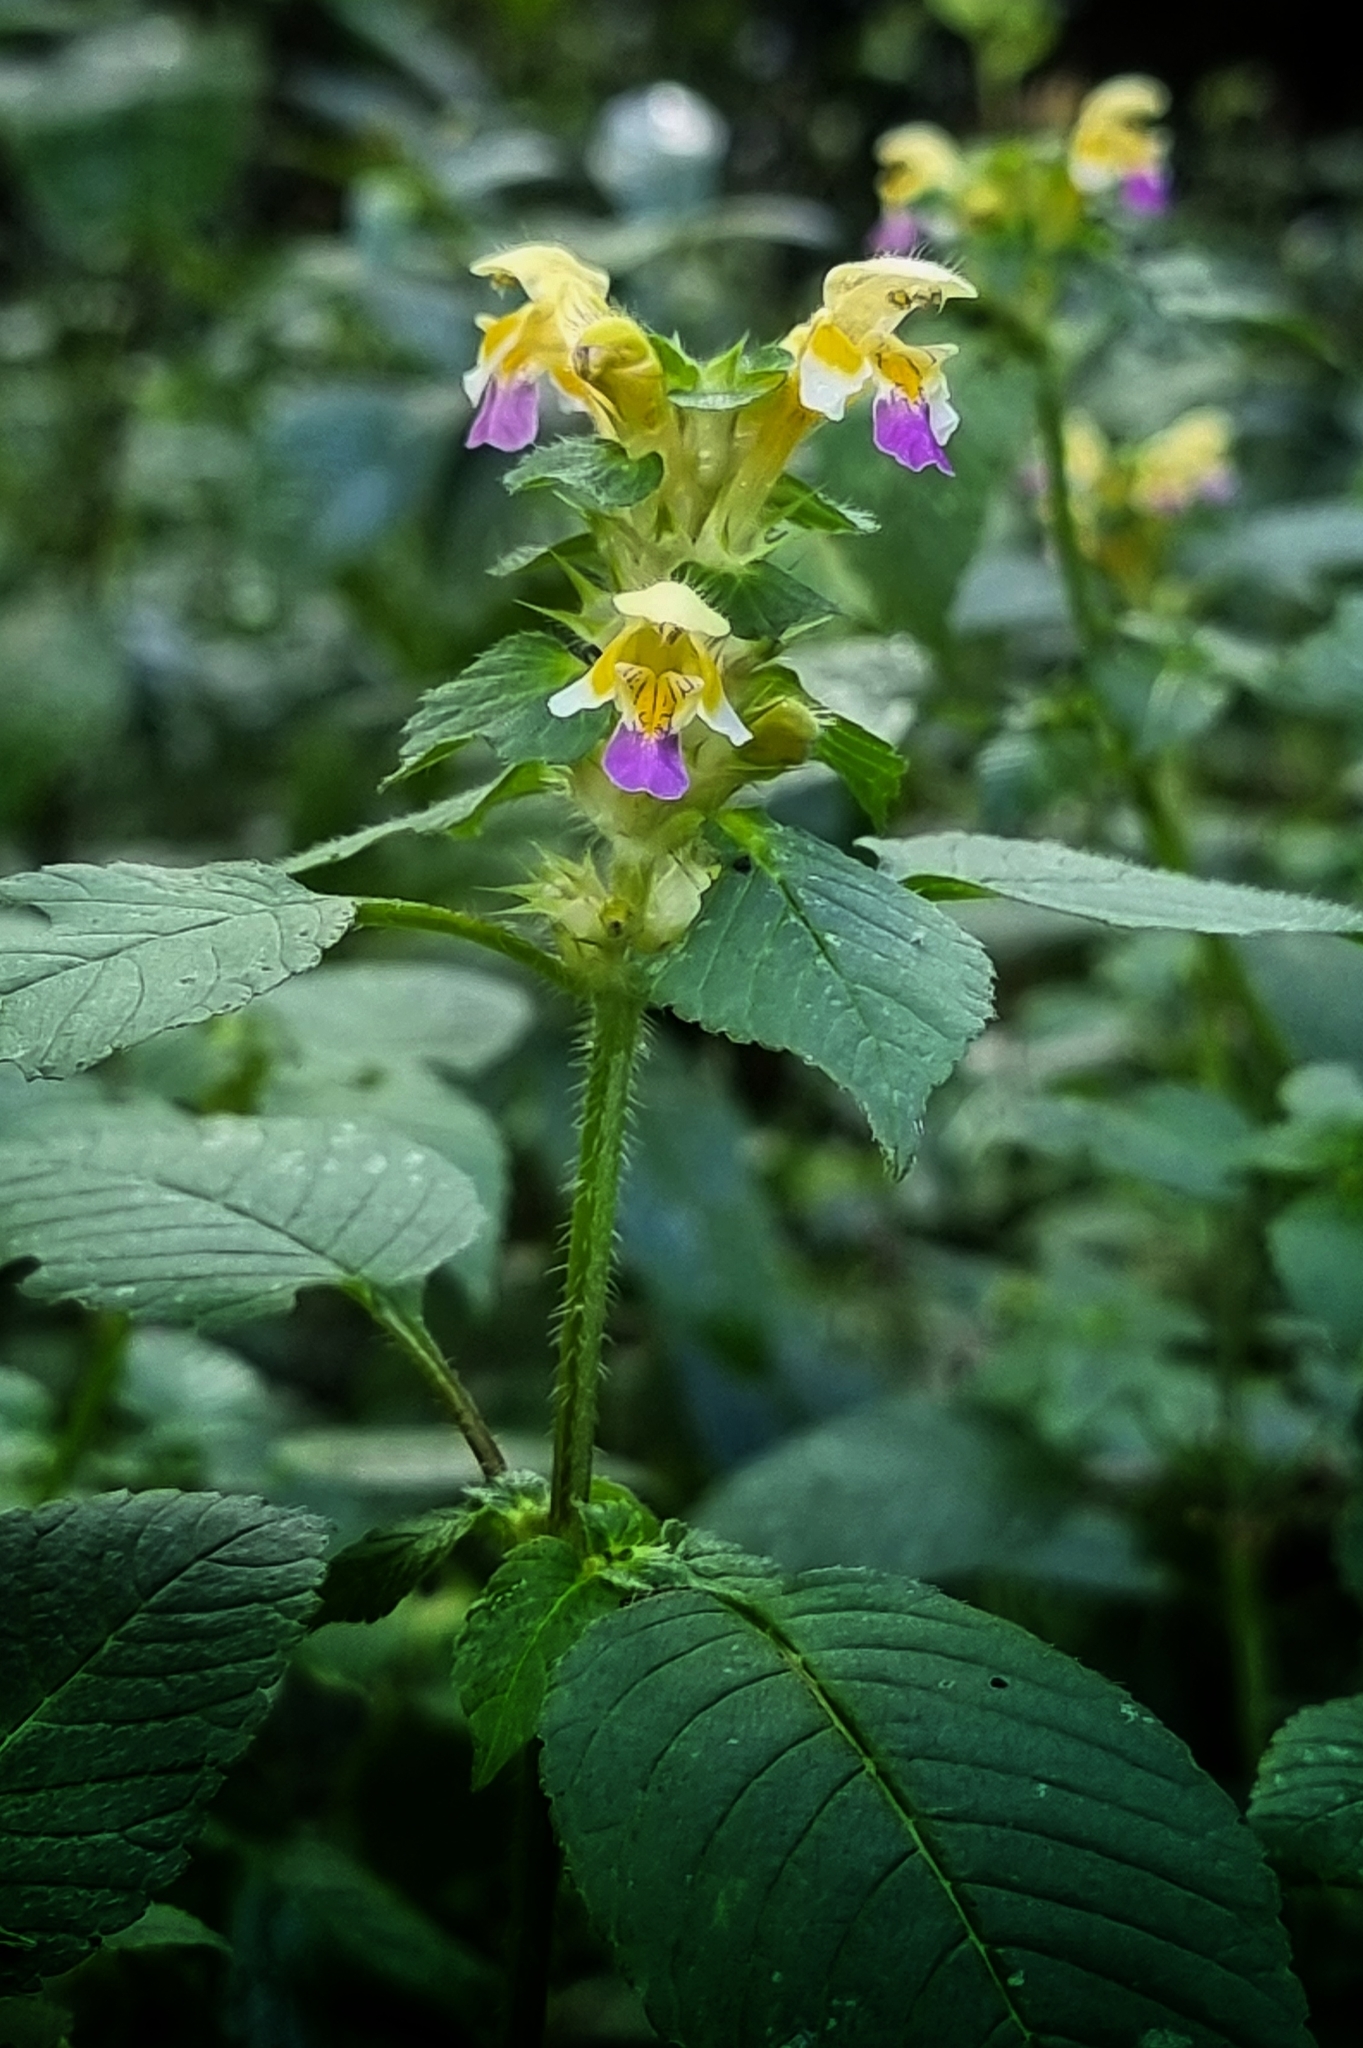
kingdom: Plantae
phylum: Tracheophyta
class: Magnoliopsida
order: Lamiales
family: Lamiaceae
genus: Galeopsis
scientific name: Galeopsis speciosa
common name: Large-flowered hemp-nettle
